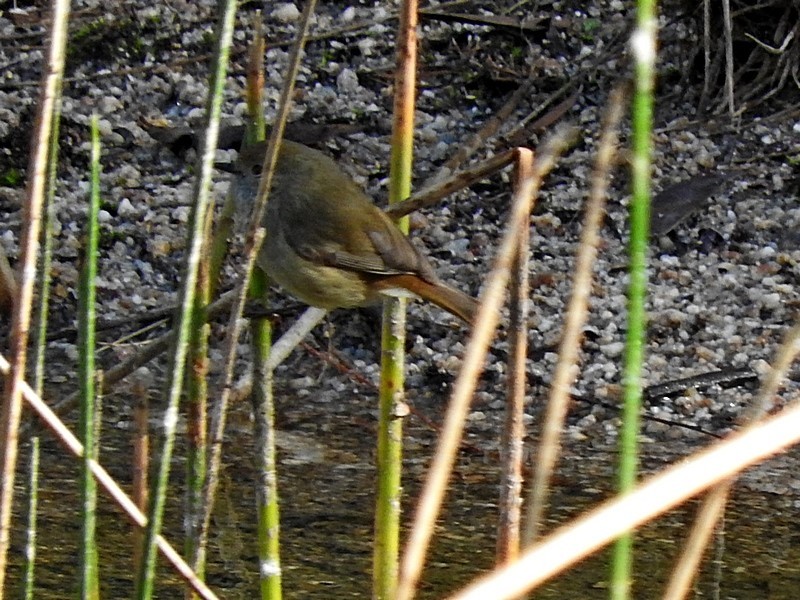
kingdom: Animalia
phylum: Chordata
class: Aves
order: Passeriformes
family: Acanthizidae
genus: Acanthiza
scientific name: Acanthiza pusilla
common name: Brown thornbill
